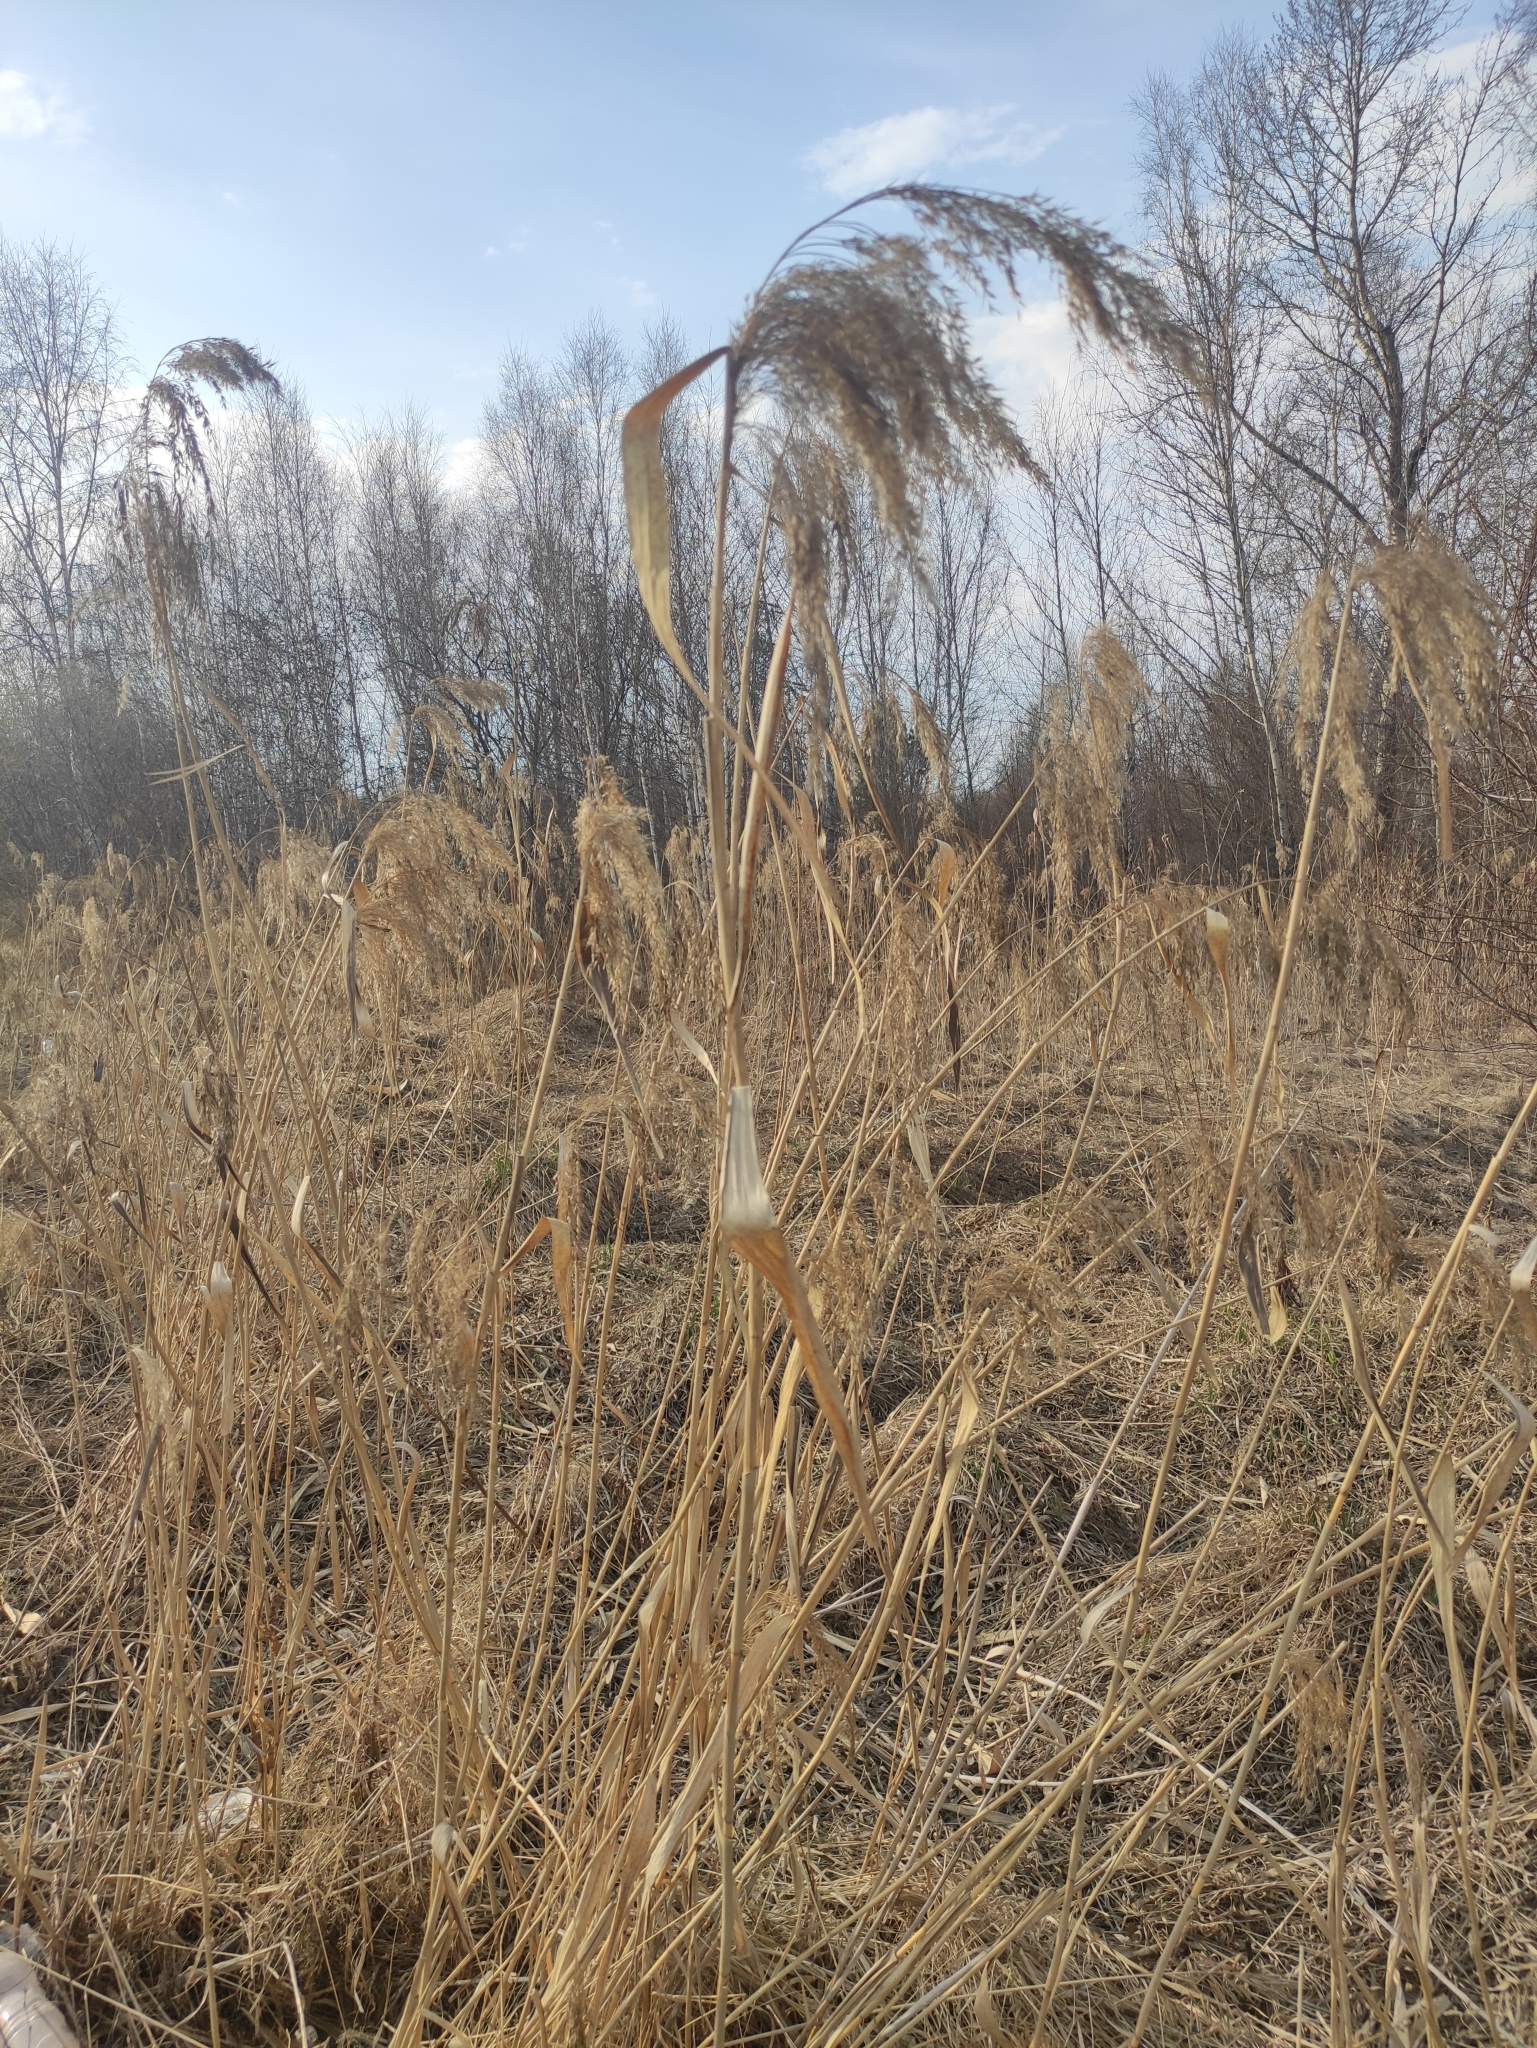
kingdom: Plantae
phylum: Tracheophyta
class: Liliopsida
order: Poales
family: Poaceae
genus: Phragmites
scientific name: Phragmites australis
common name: Common reed
